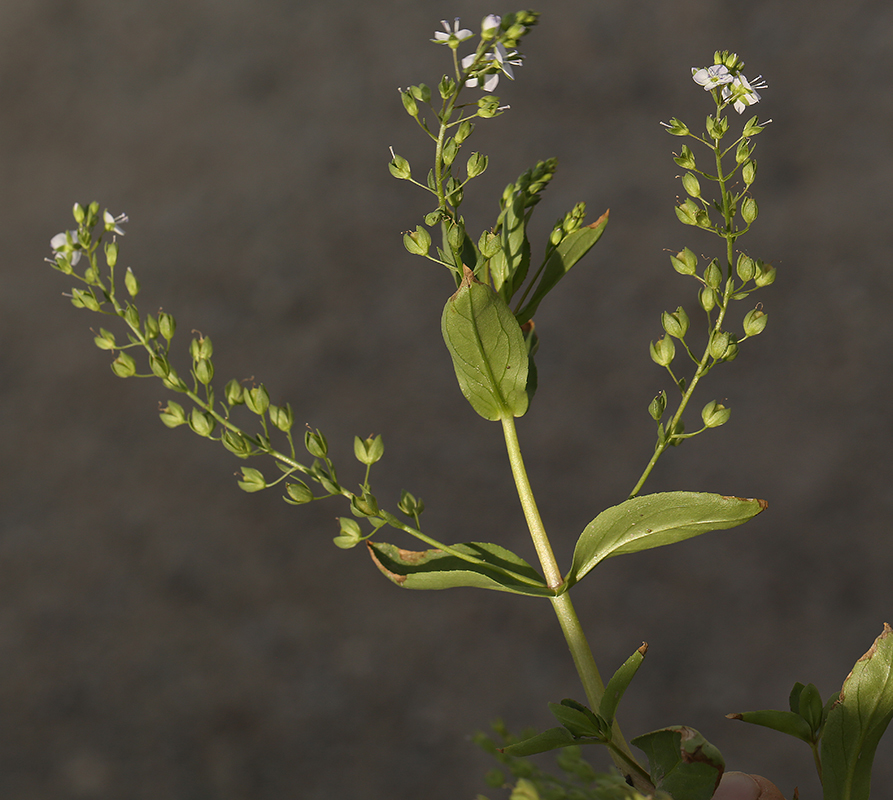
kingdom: Plantae
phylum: Tracheophyta
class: Magnoliopsida
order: Lamiales
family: Plantaginaceae
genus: Veronica
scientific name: Veronica anagallis-aquatica
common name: Water speedwell
